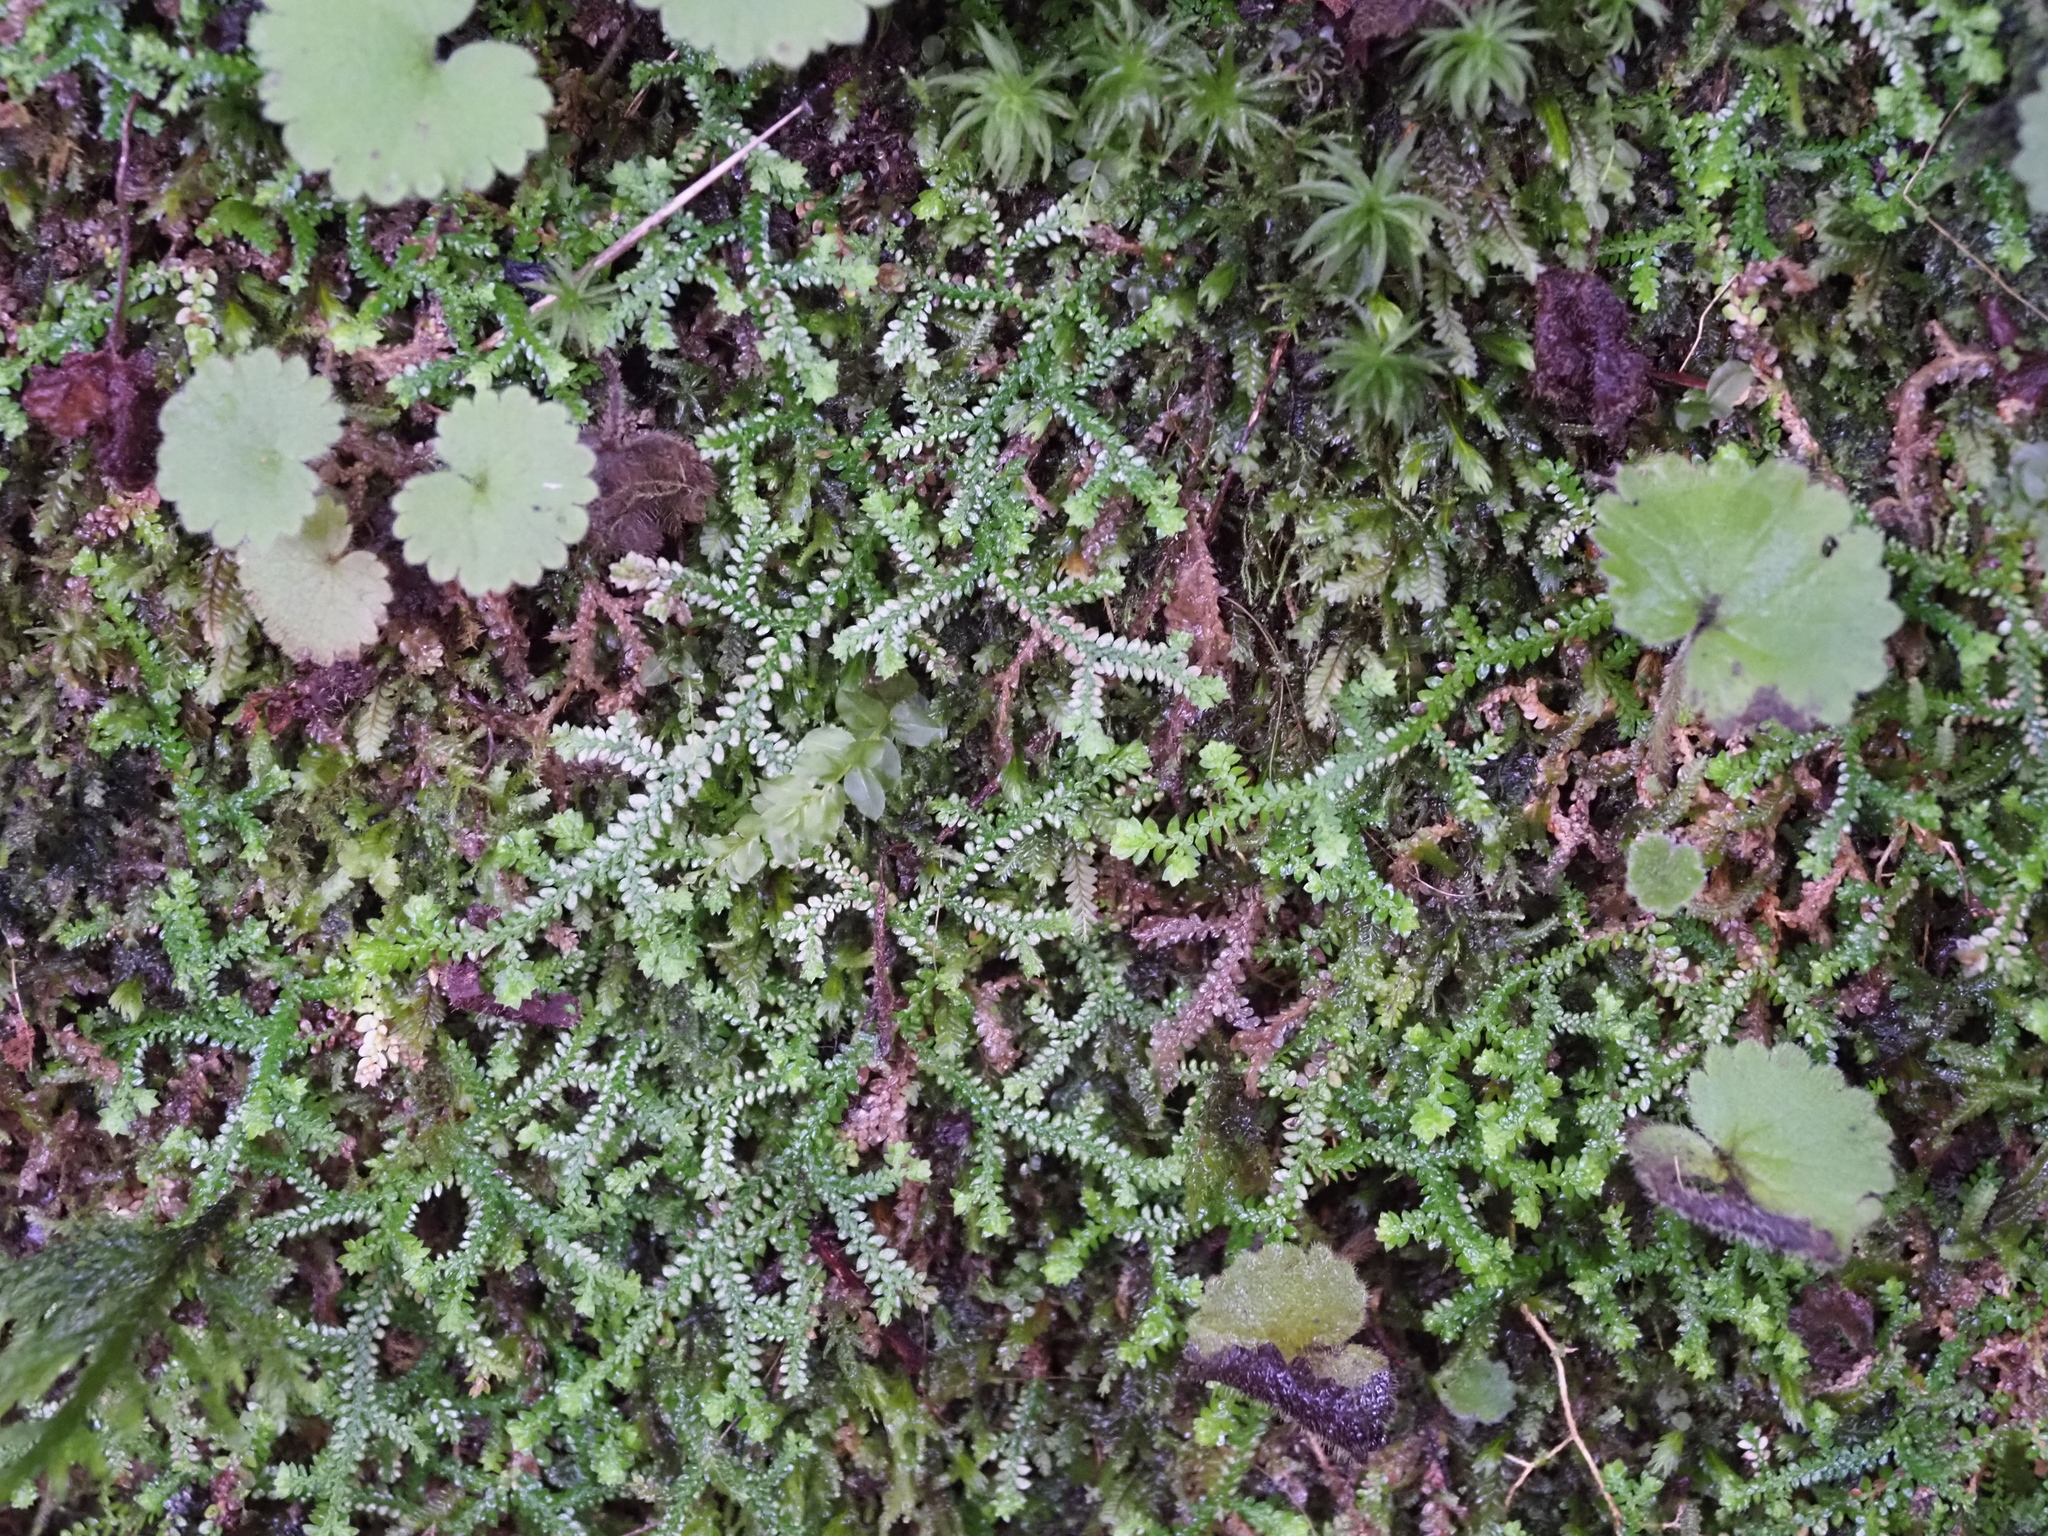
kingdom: Plantae
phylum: Tracheophyta
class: Lycopodiopsida
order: Selaginellales
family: Selaginellaceae
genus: Selaginella
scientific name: Selaginella denticulata
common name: Toothed-leaved clubmoss
